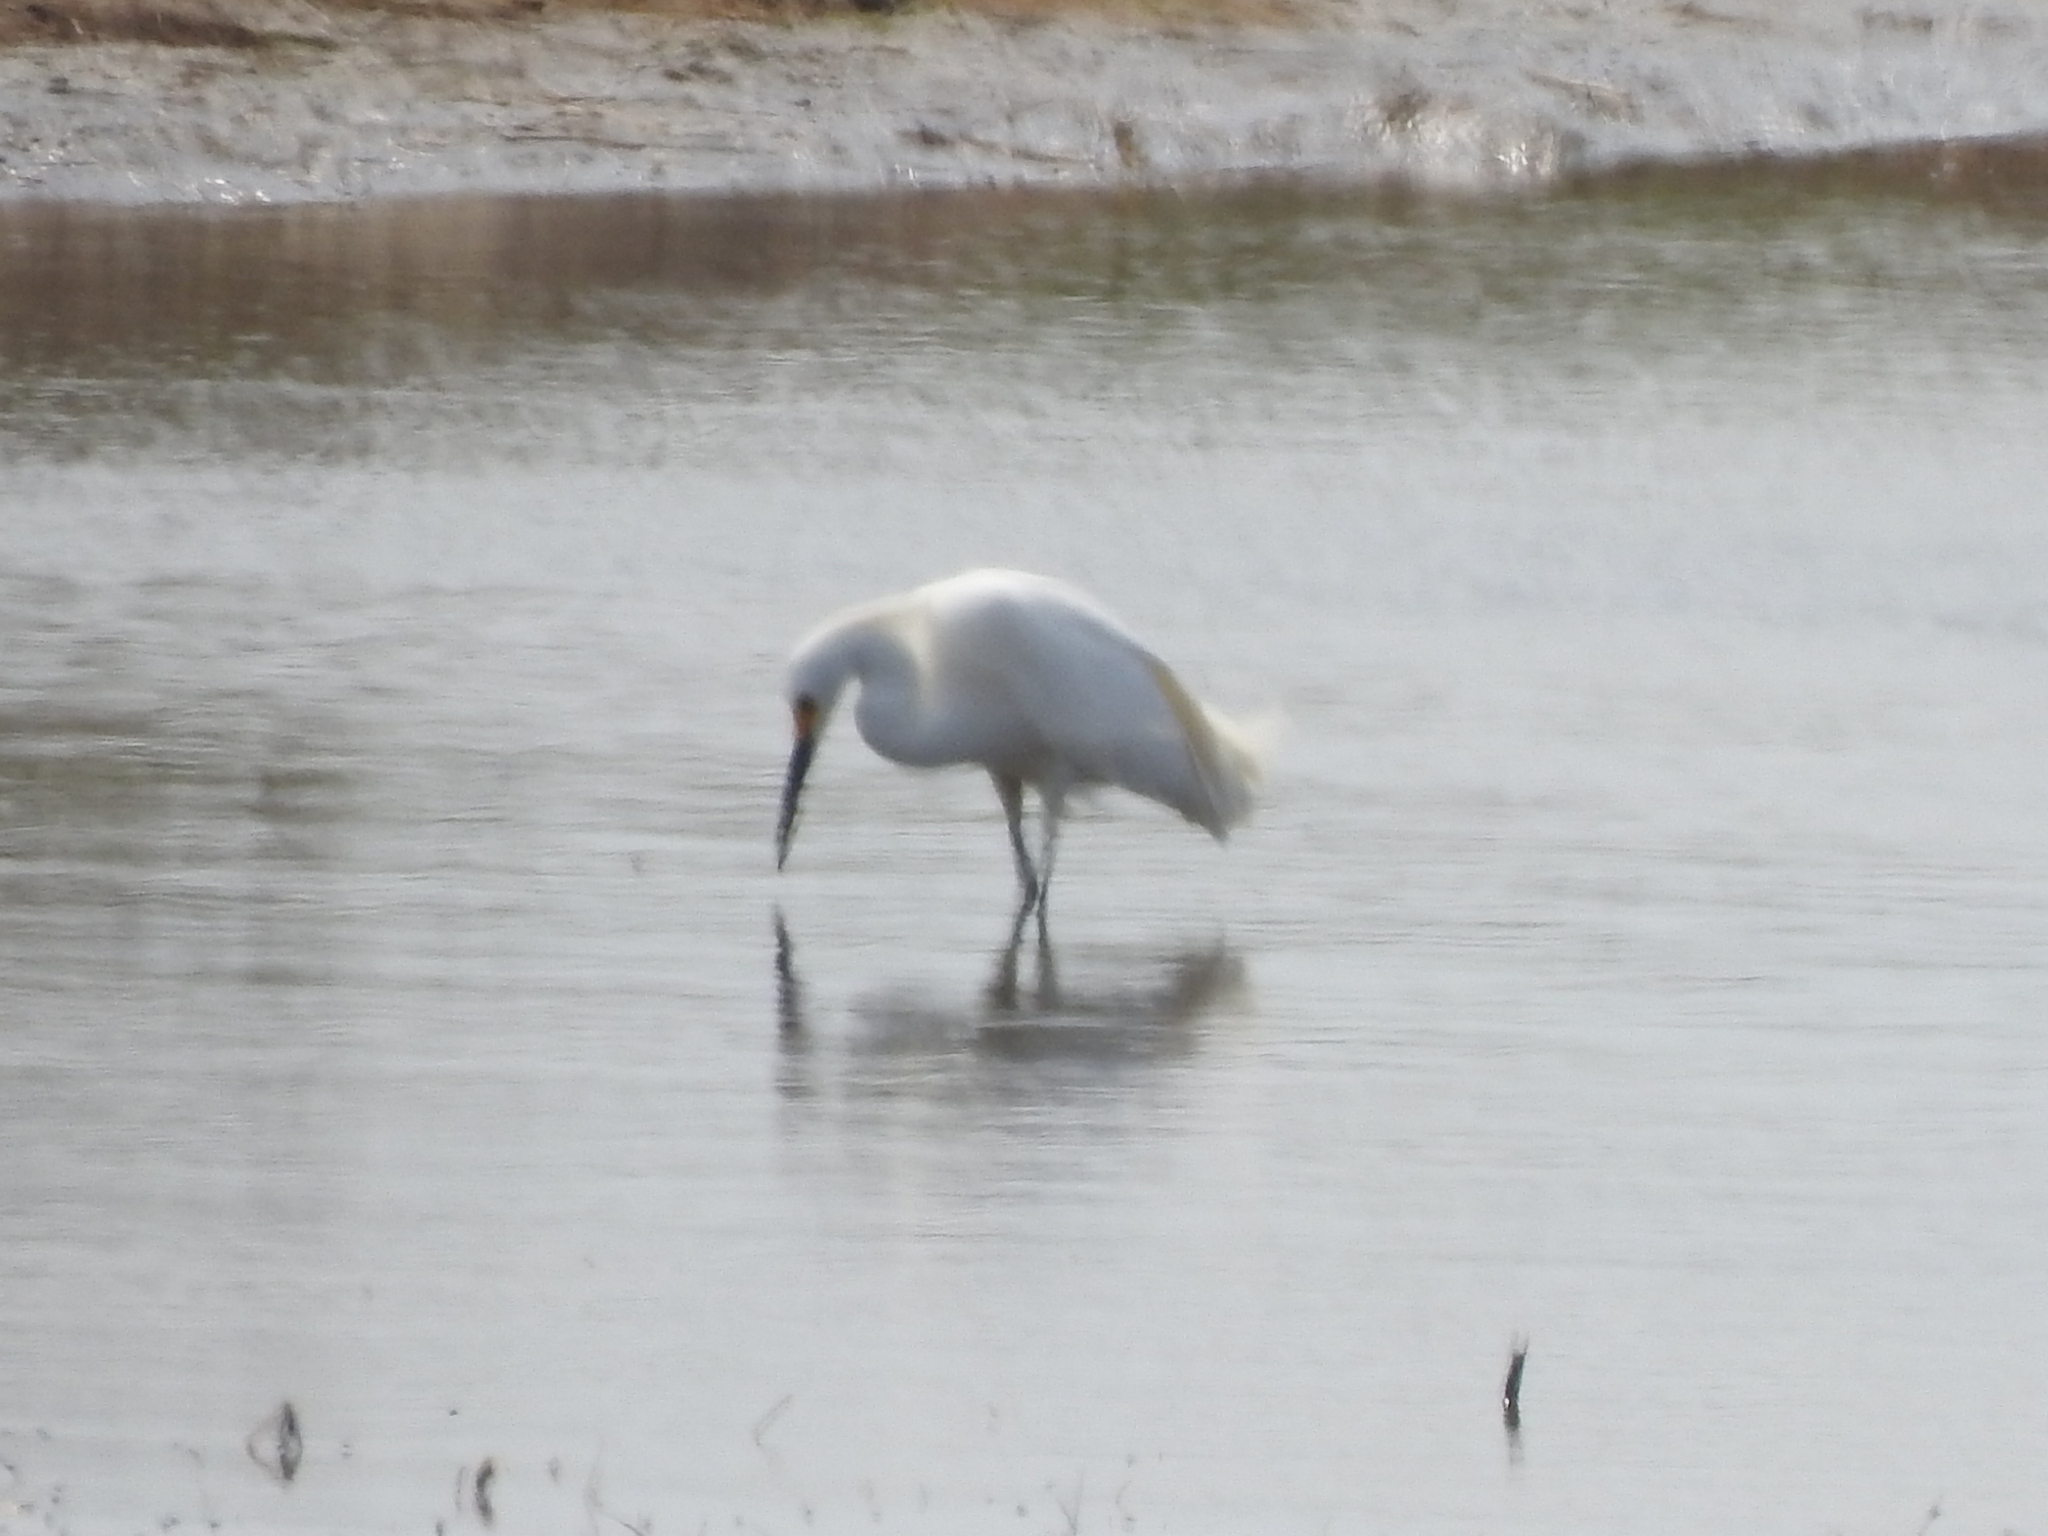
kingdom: Animalia
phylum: Chordata
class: Aves
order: Pelecaniformes
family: Ardeidae
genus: Egretta
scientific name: Egretta thula
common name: Snowy egret
